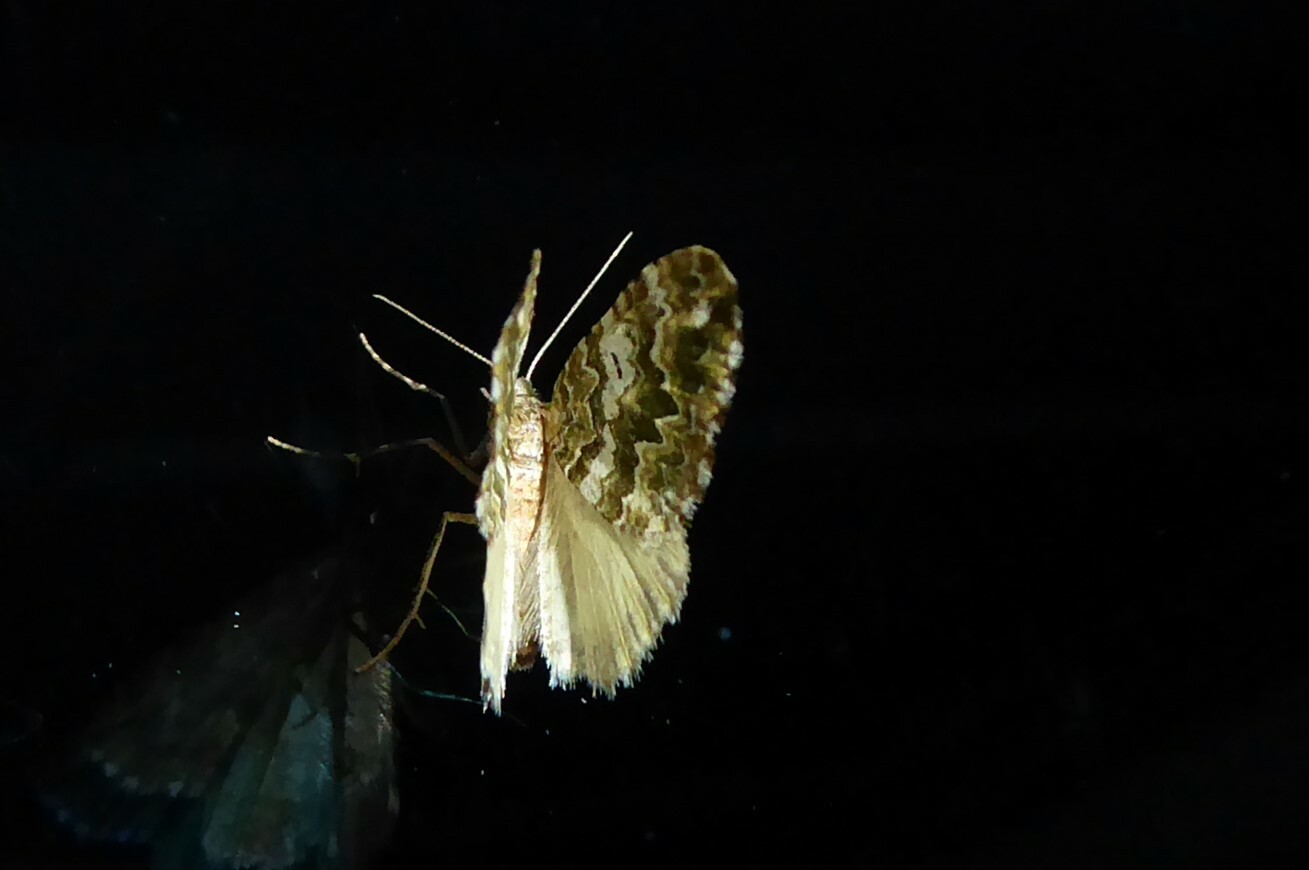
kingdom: Animalia
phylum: Arthropoda
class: Insecta
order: Lepidoptera
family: Geometridae
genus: Asaphodes
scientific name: Asaphodes beata
